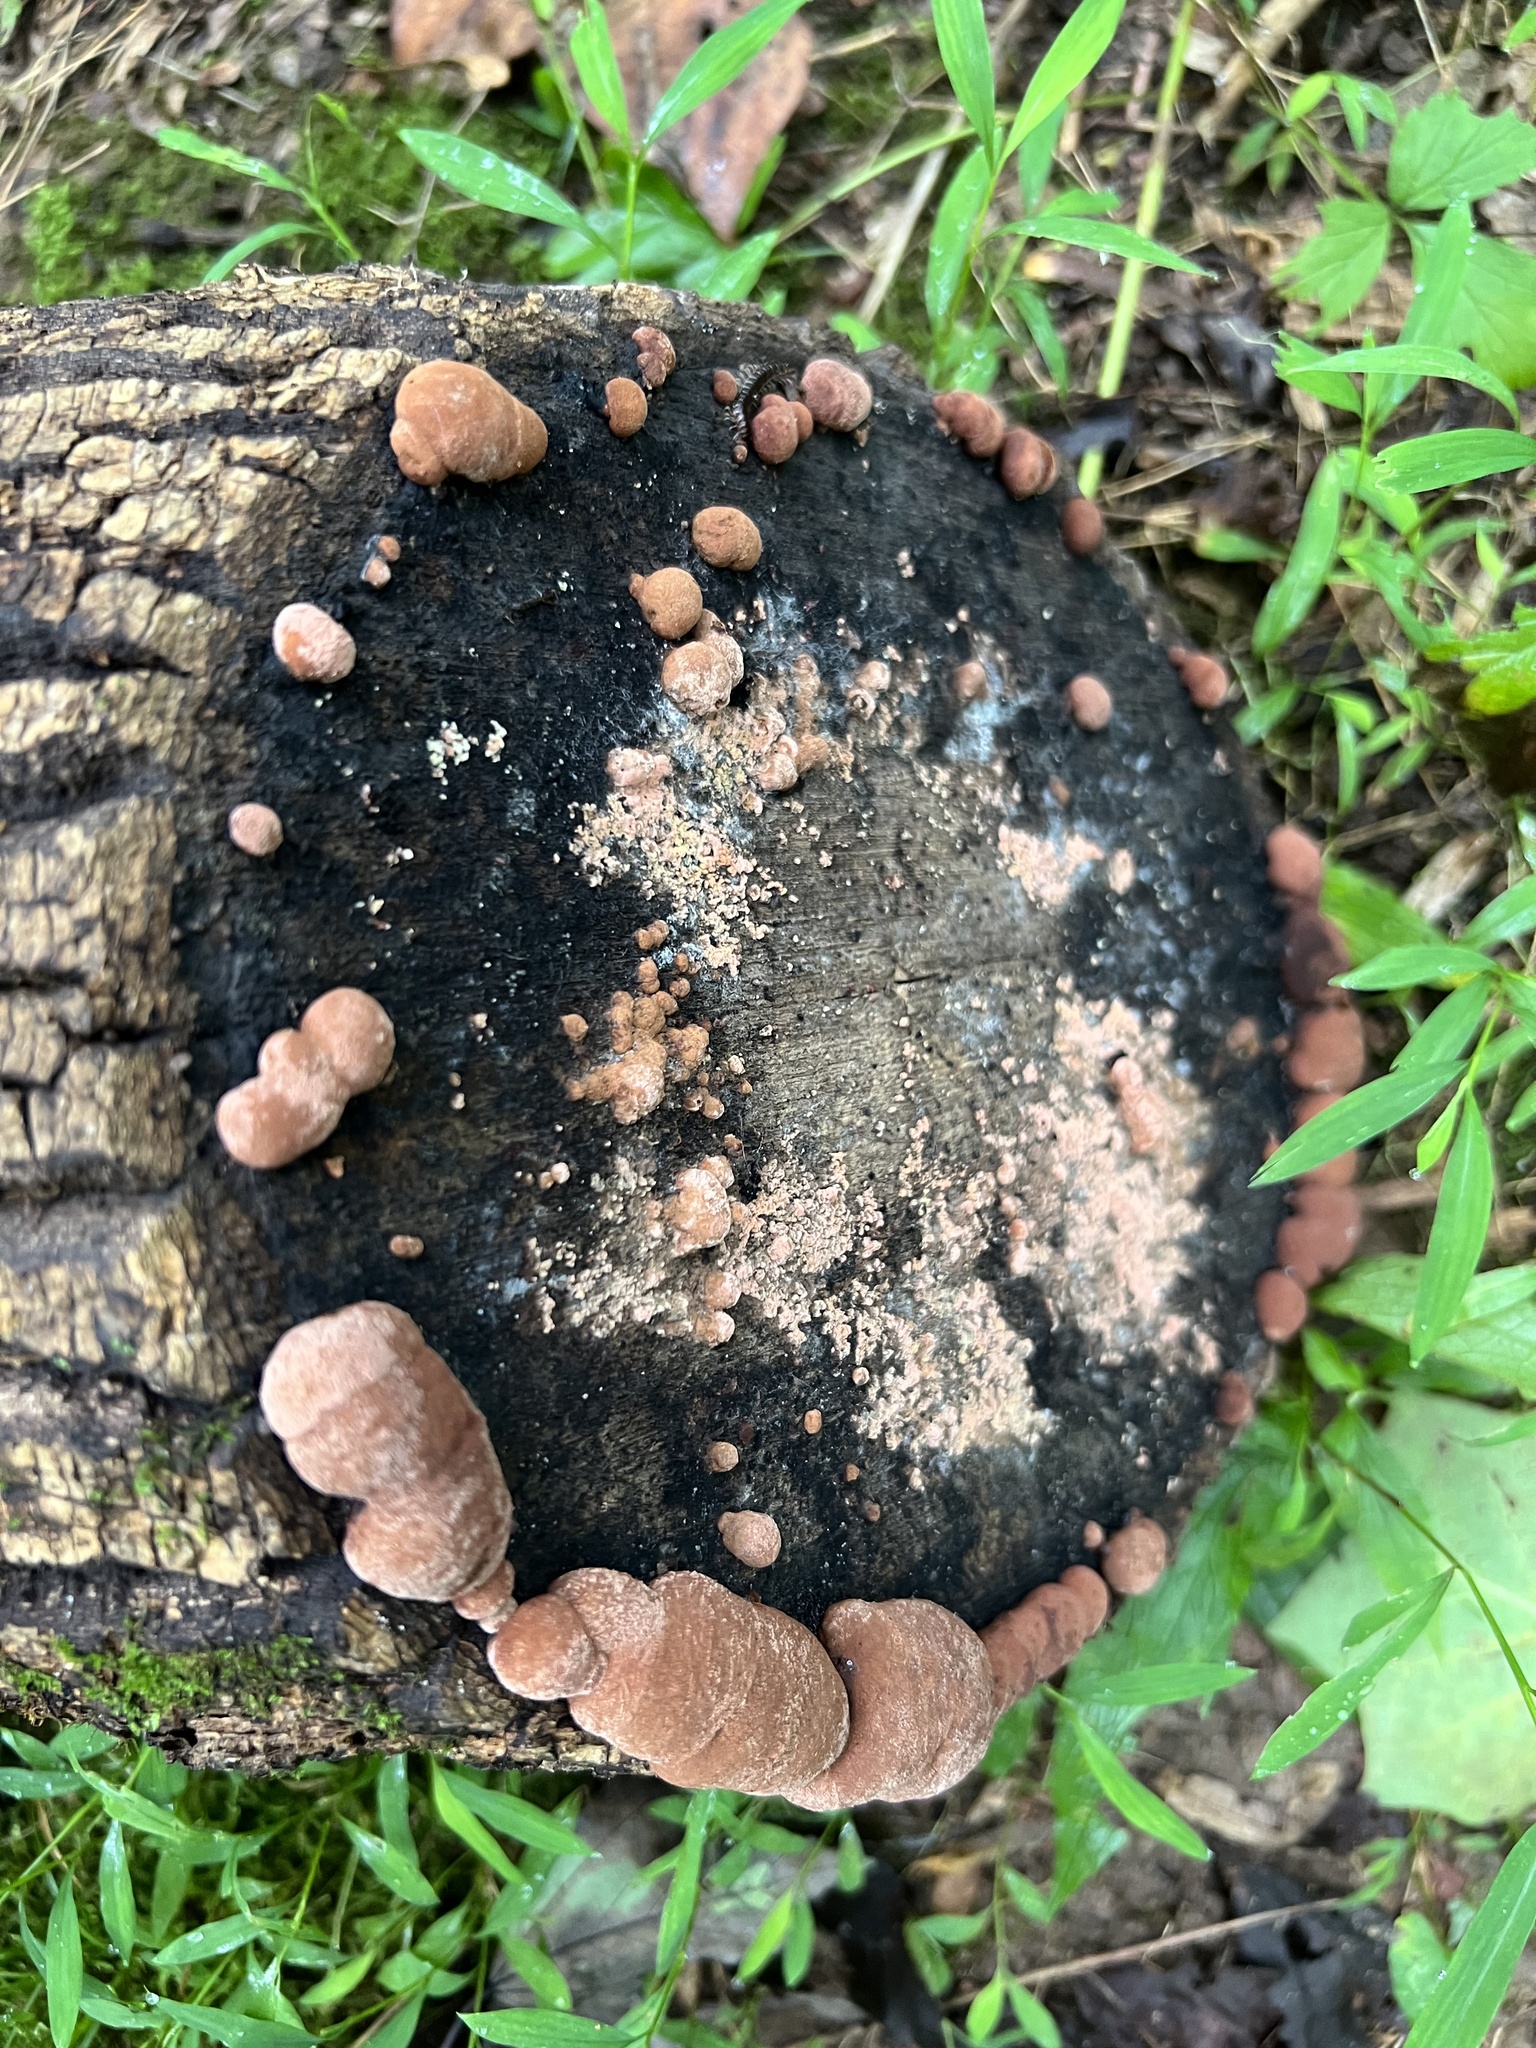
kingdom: Fungi
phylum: Ascomycota
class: Sordariomycetes
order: Xylariales
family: Hypoxylaceae
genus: Hypoxylon
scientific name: Hypoxylon howeanum
